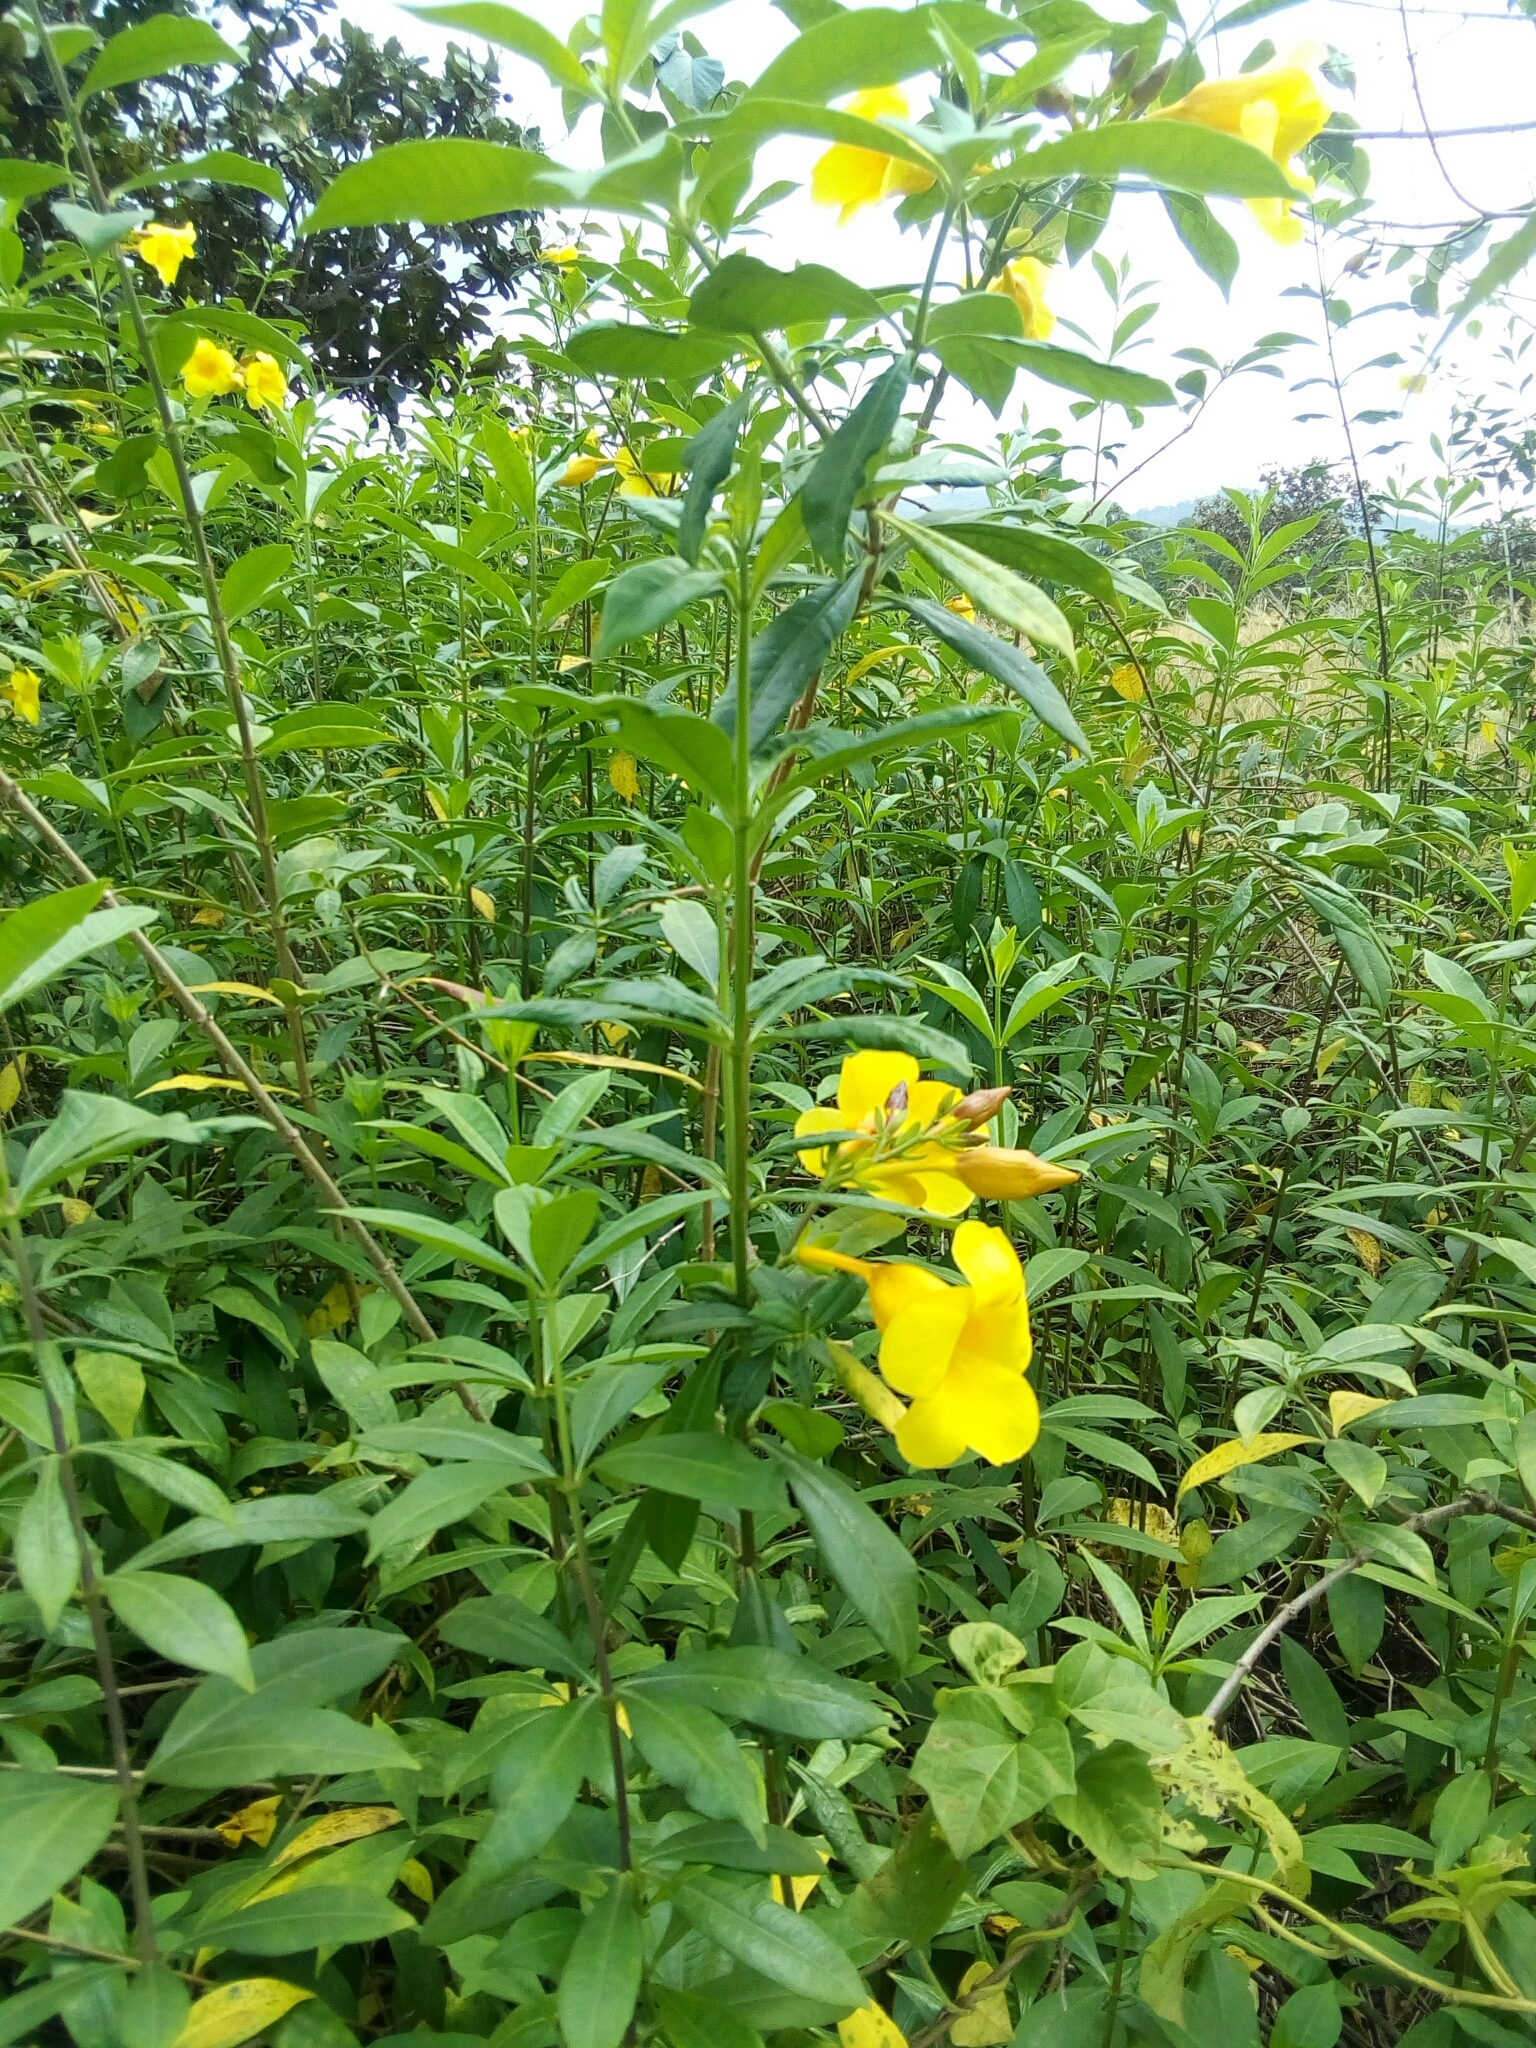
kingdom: Plantae
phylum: Tracheophyta
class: Magnoliopsida
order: Gentianales
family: Apocynaceae
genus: Allamanda
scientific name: Allamanda cathartica
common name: Golden trumpet
